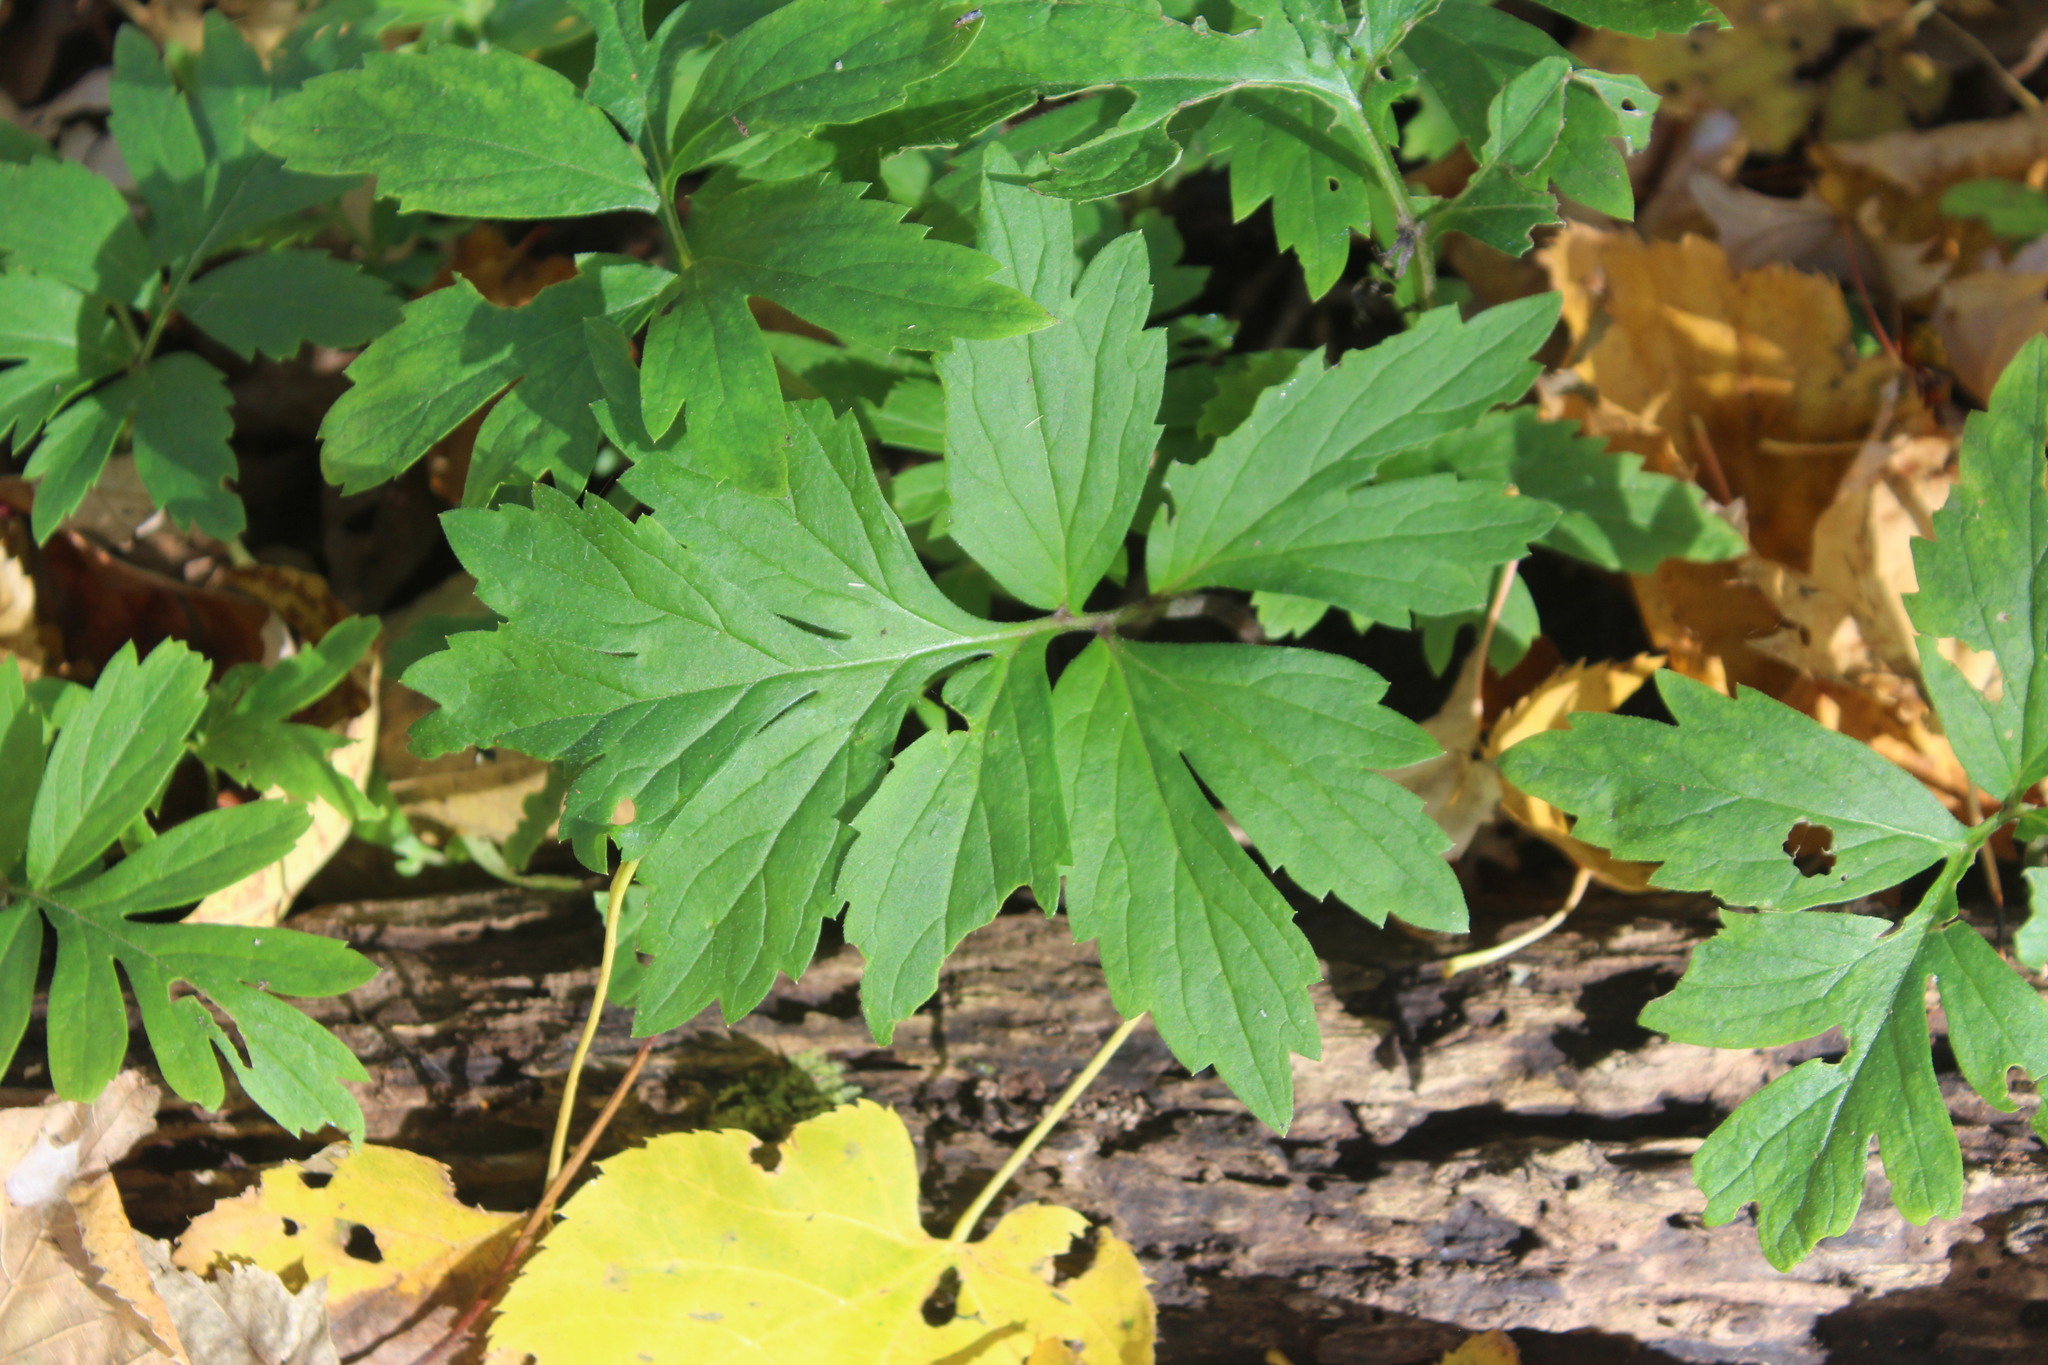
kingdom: Plantae
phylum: Tracheophyta
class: Magnoliopsida
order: Boraginales
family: Hydrophyllaceae
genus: Hydrophyllum
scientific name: Hydrophyllum virginianum
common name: Virginia waterleaf
